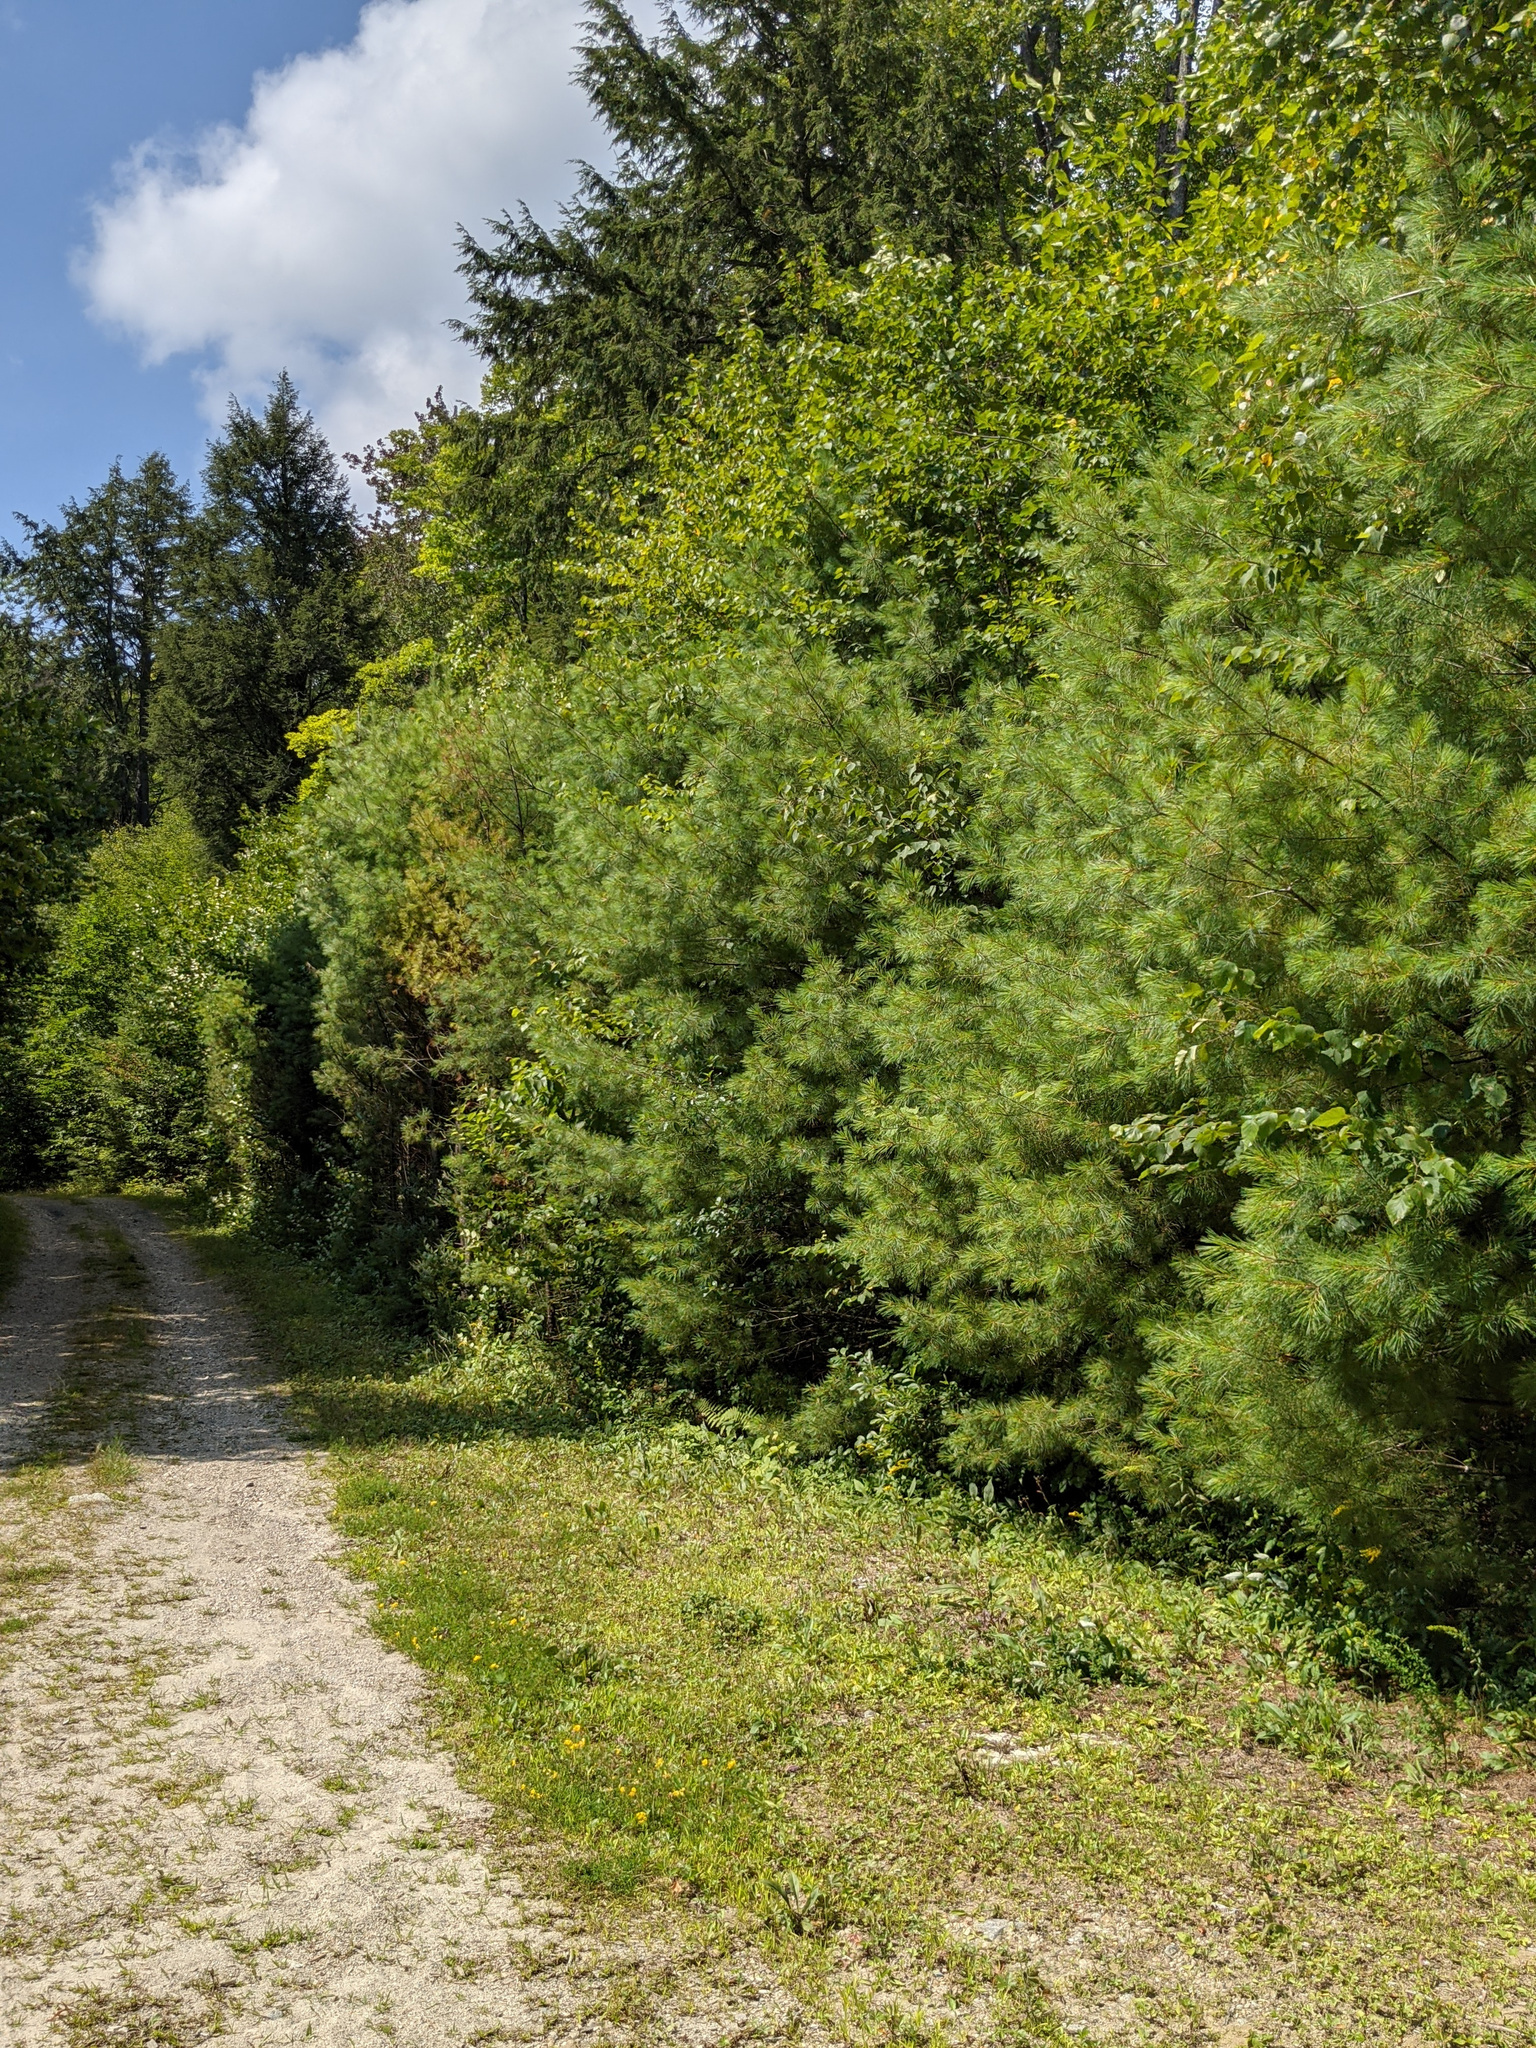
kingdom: Plantae
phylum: Tracheophyta
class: Pinopsida
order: Pinales
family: Pinaceae
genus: Pinus
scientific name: Pinus strobus
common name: Weymouth pine
